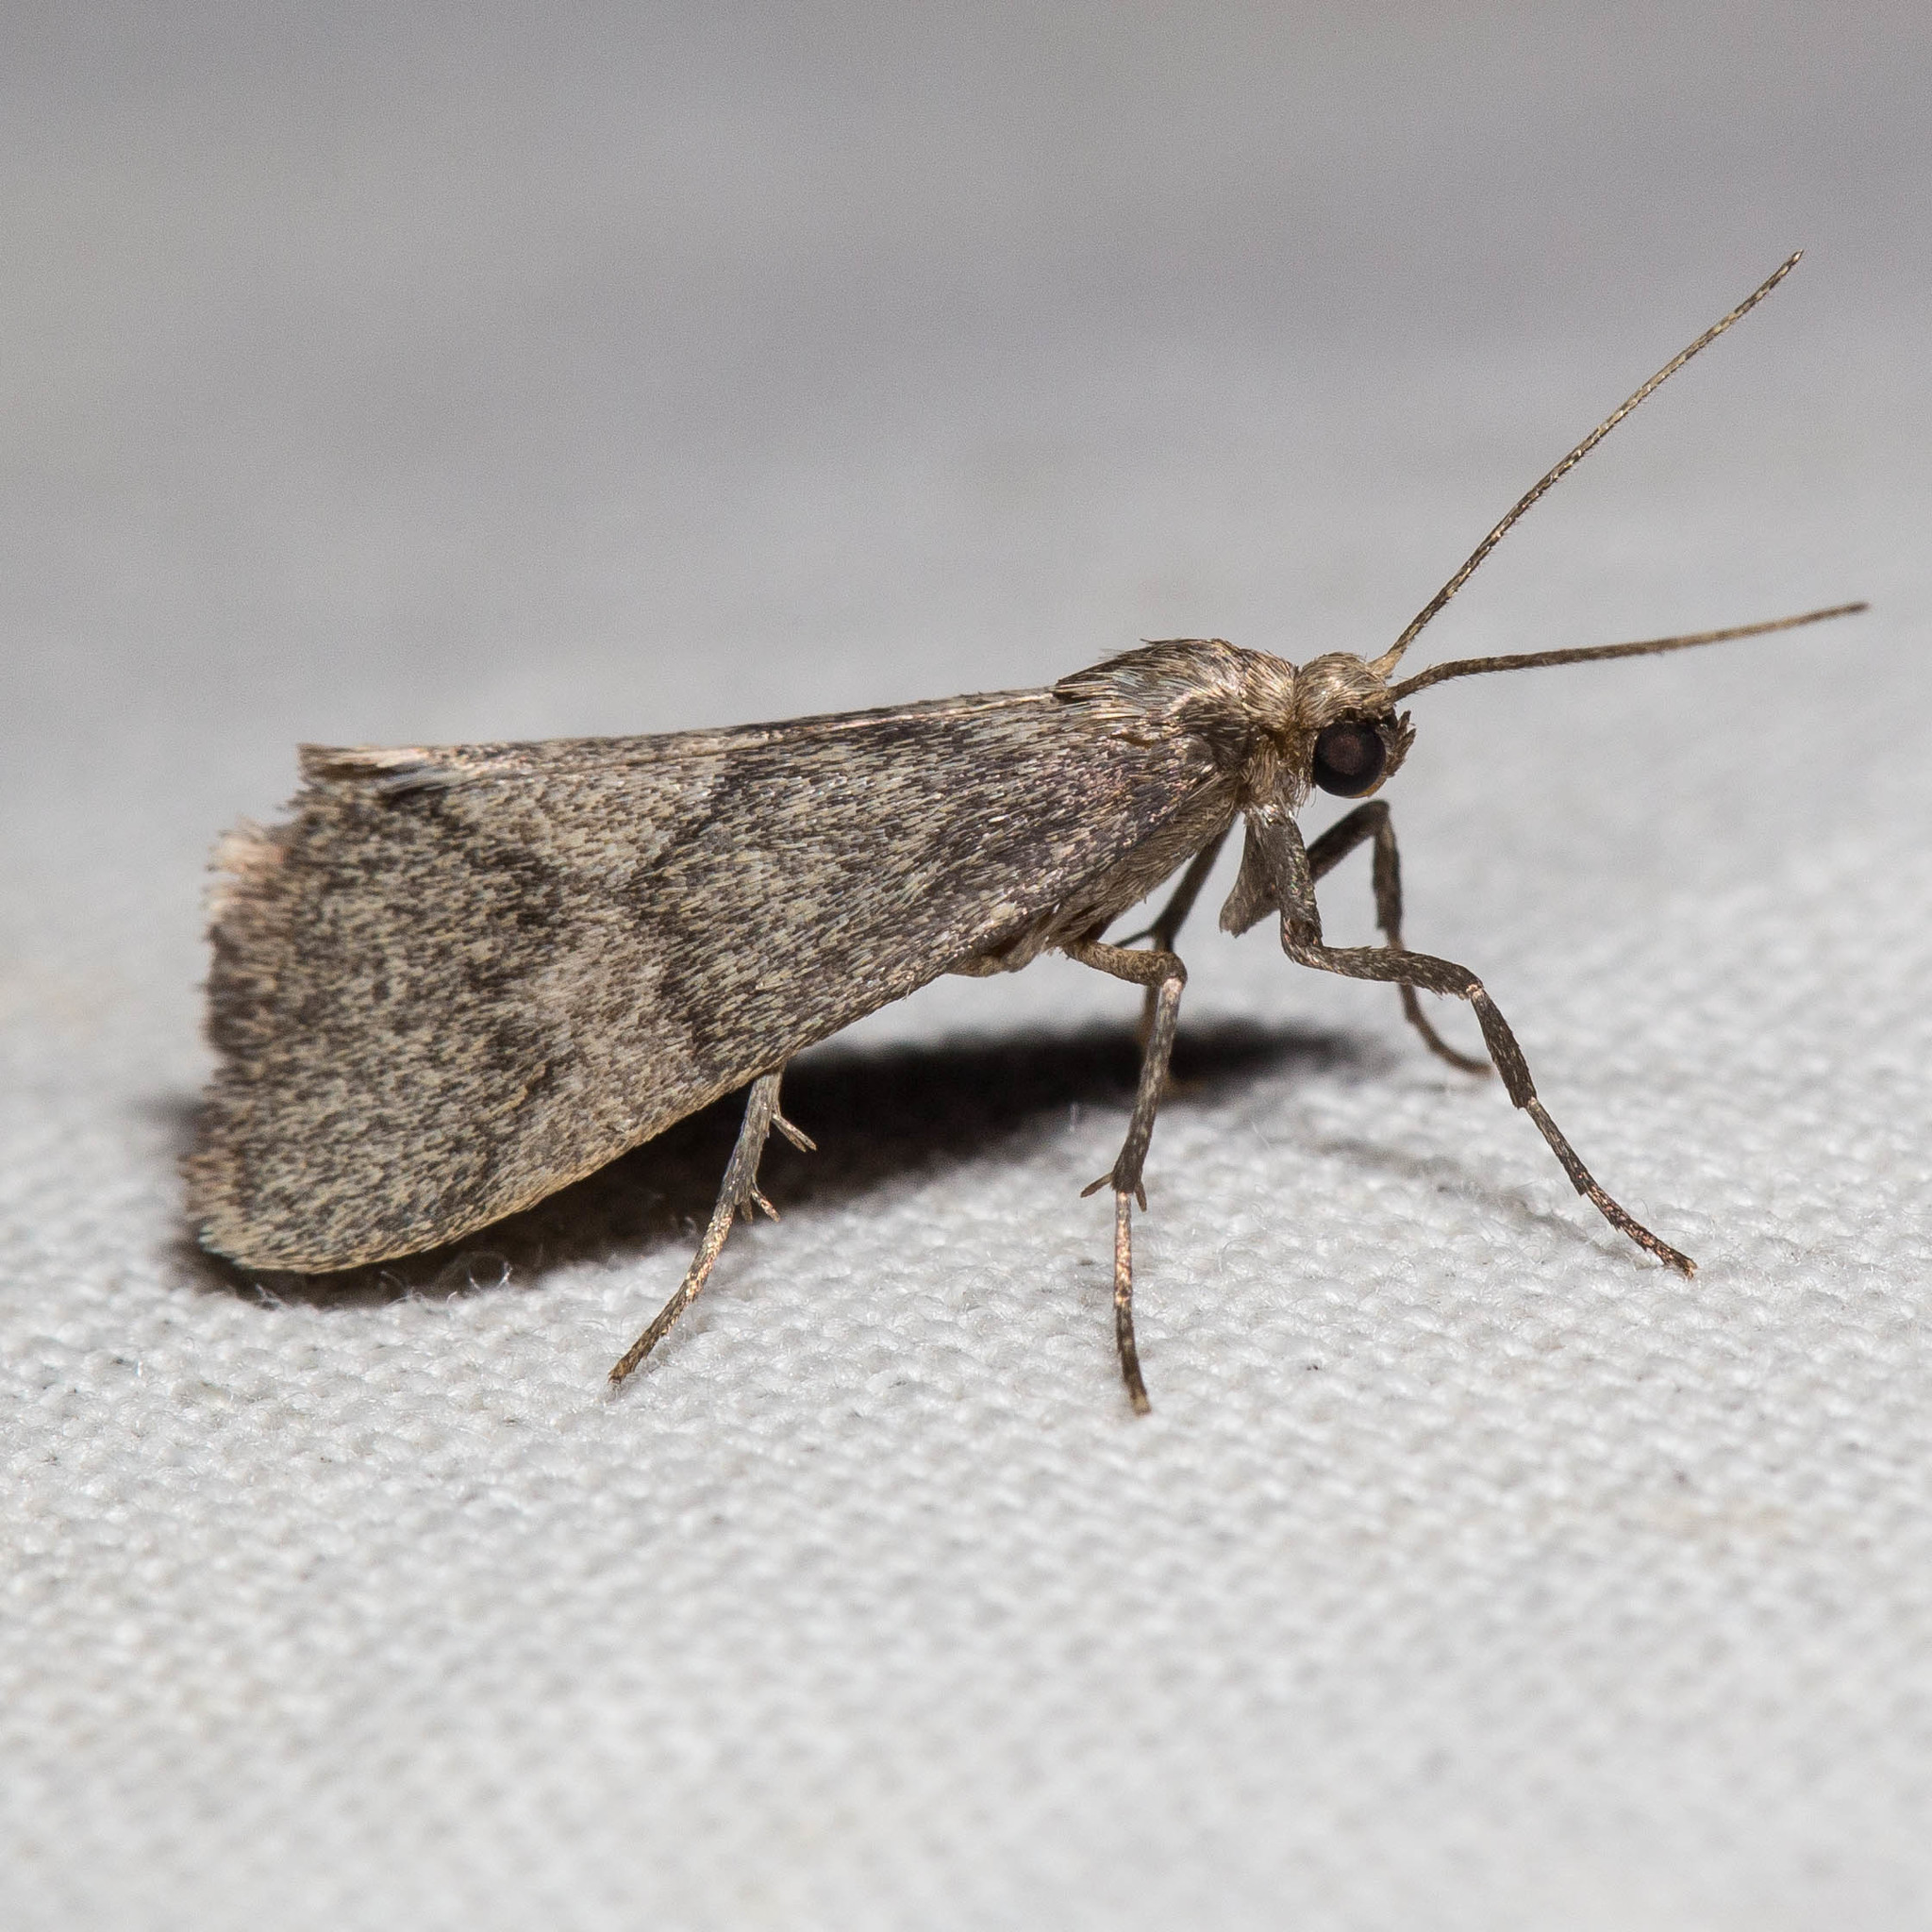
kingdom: Animalia
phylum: Arthropoda
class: Insecta
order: Lepidoptera
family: Erebidae
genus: Cisthene
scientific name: Cisthene faustinula
